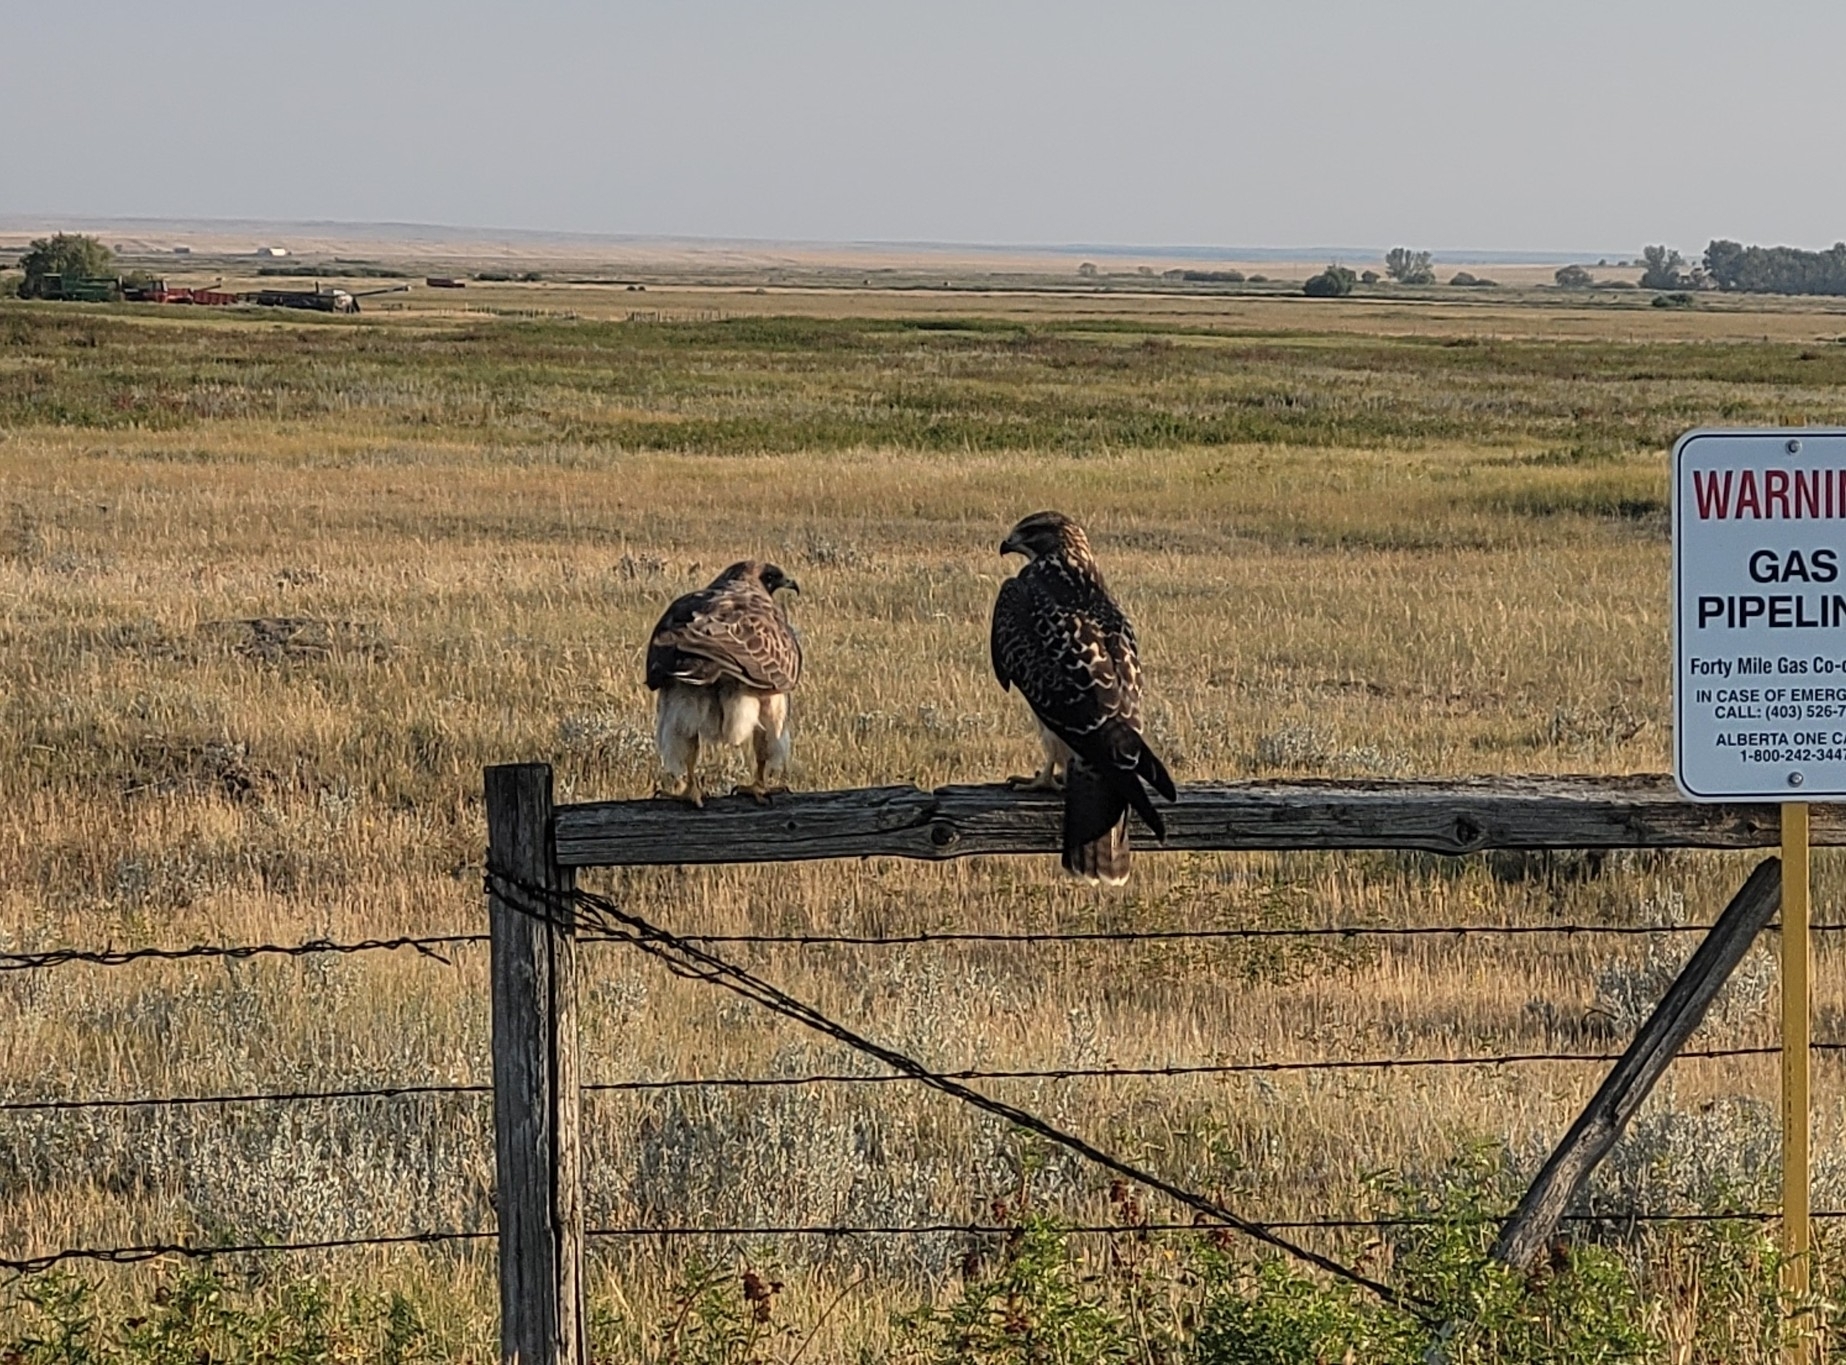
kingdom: Animalia
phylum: Chordata
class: Aves
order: Accipitriformes
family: Accipitridae
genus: Buteo
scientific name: Buteo swainsoni
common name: Swainson's hawk
